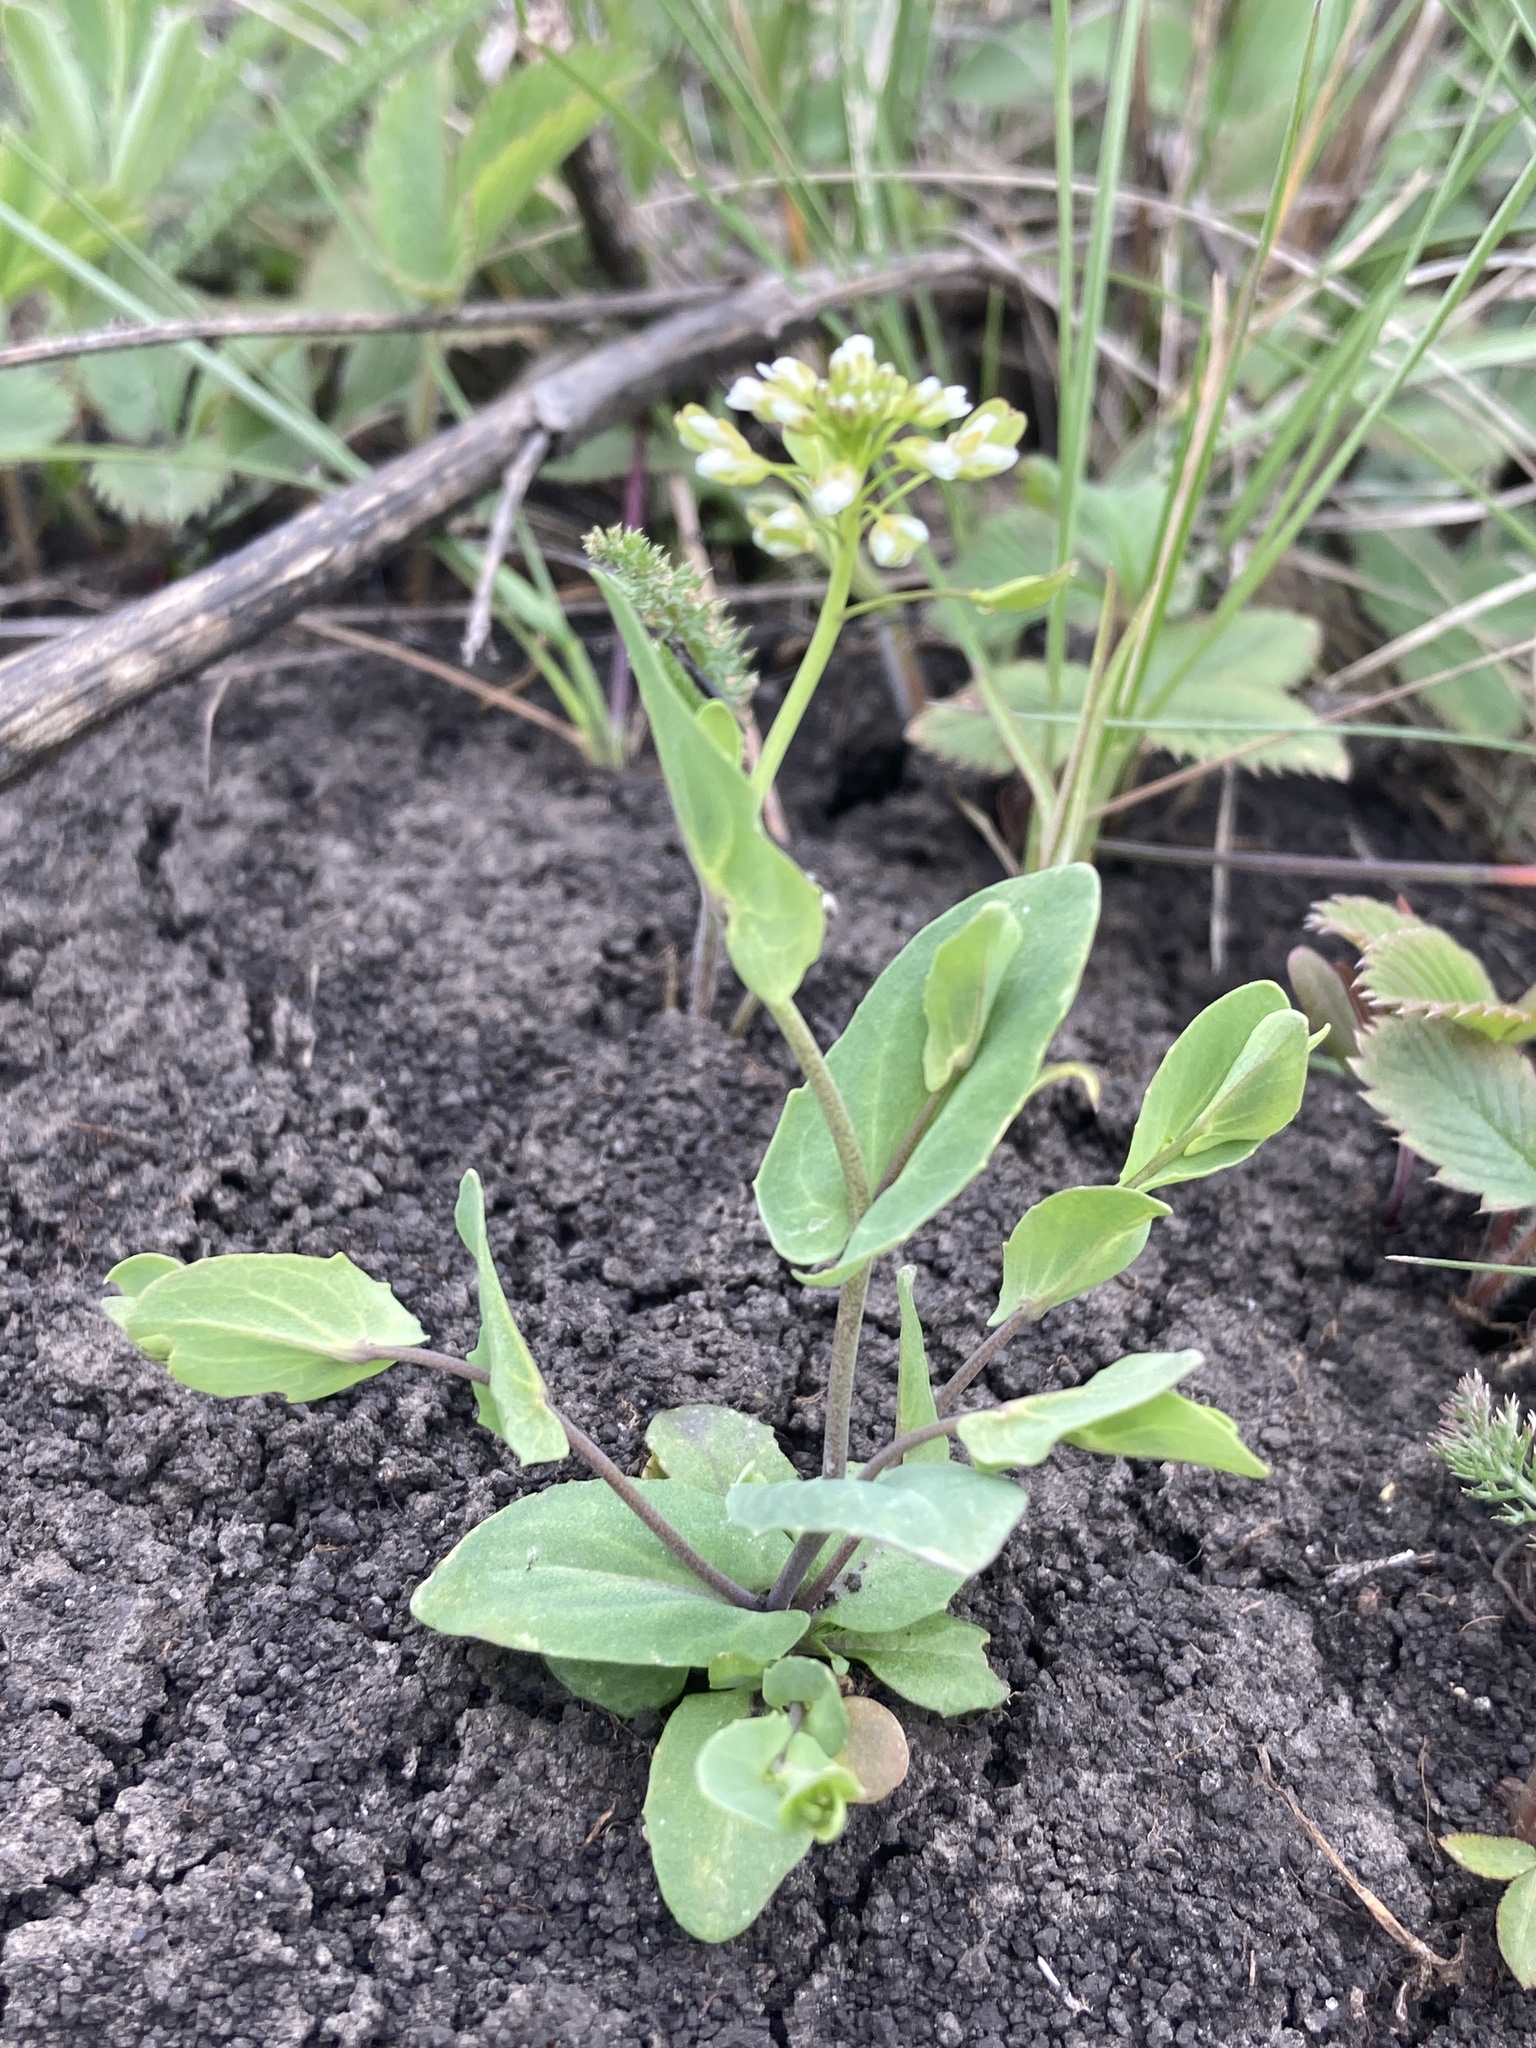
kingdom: Plantae
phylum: Tracheophyta
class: Magnoliopsida
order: Brassicales
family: Brassicaceae
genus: Noccaea
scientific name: Noccaea perfoliata
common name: Perfoliate pennycress
